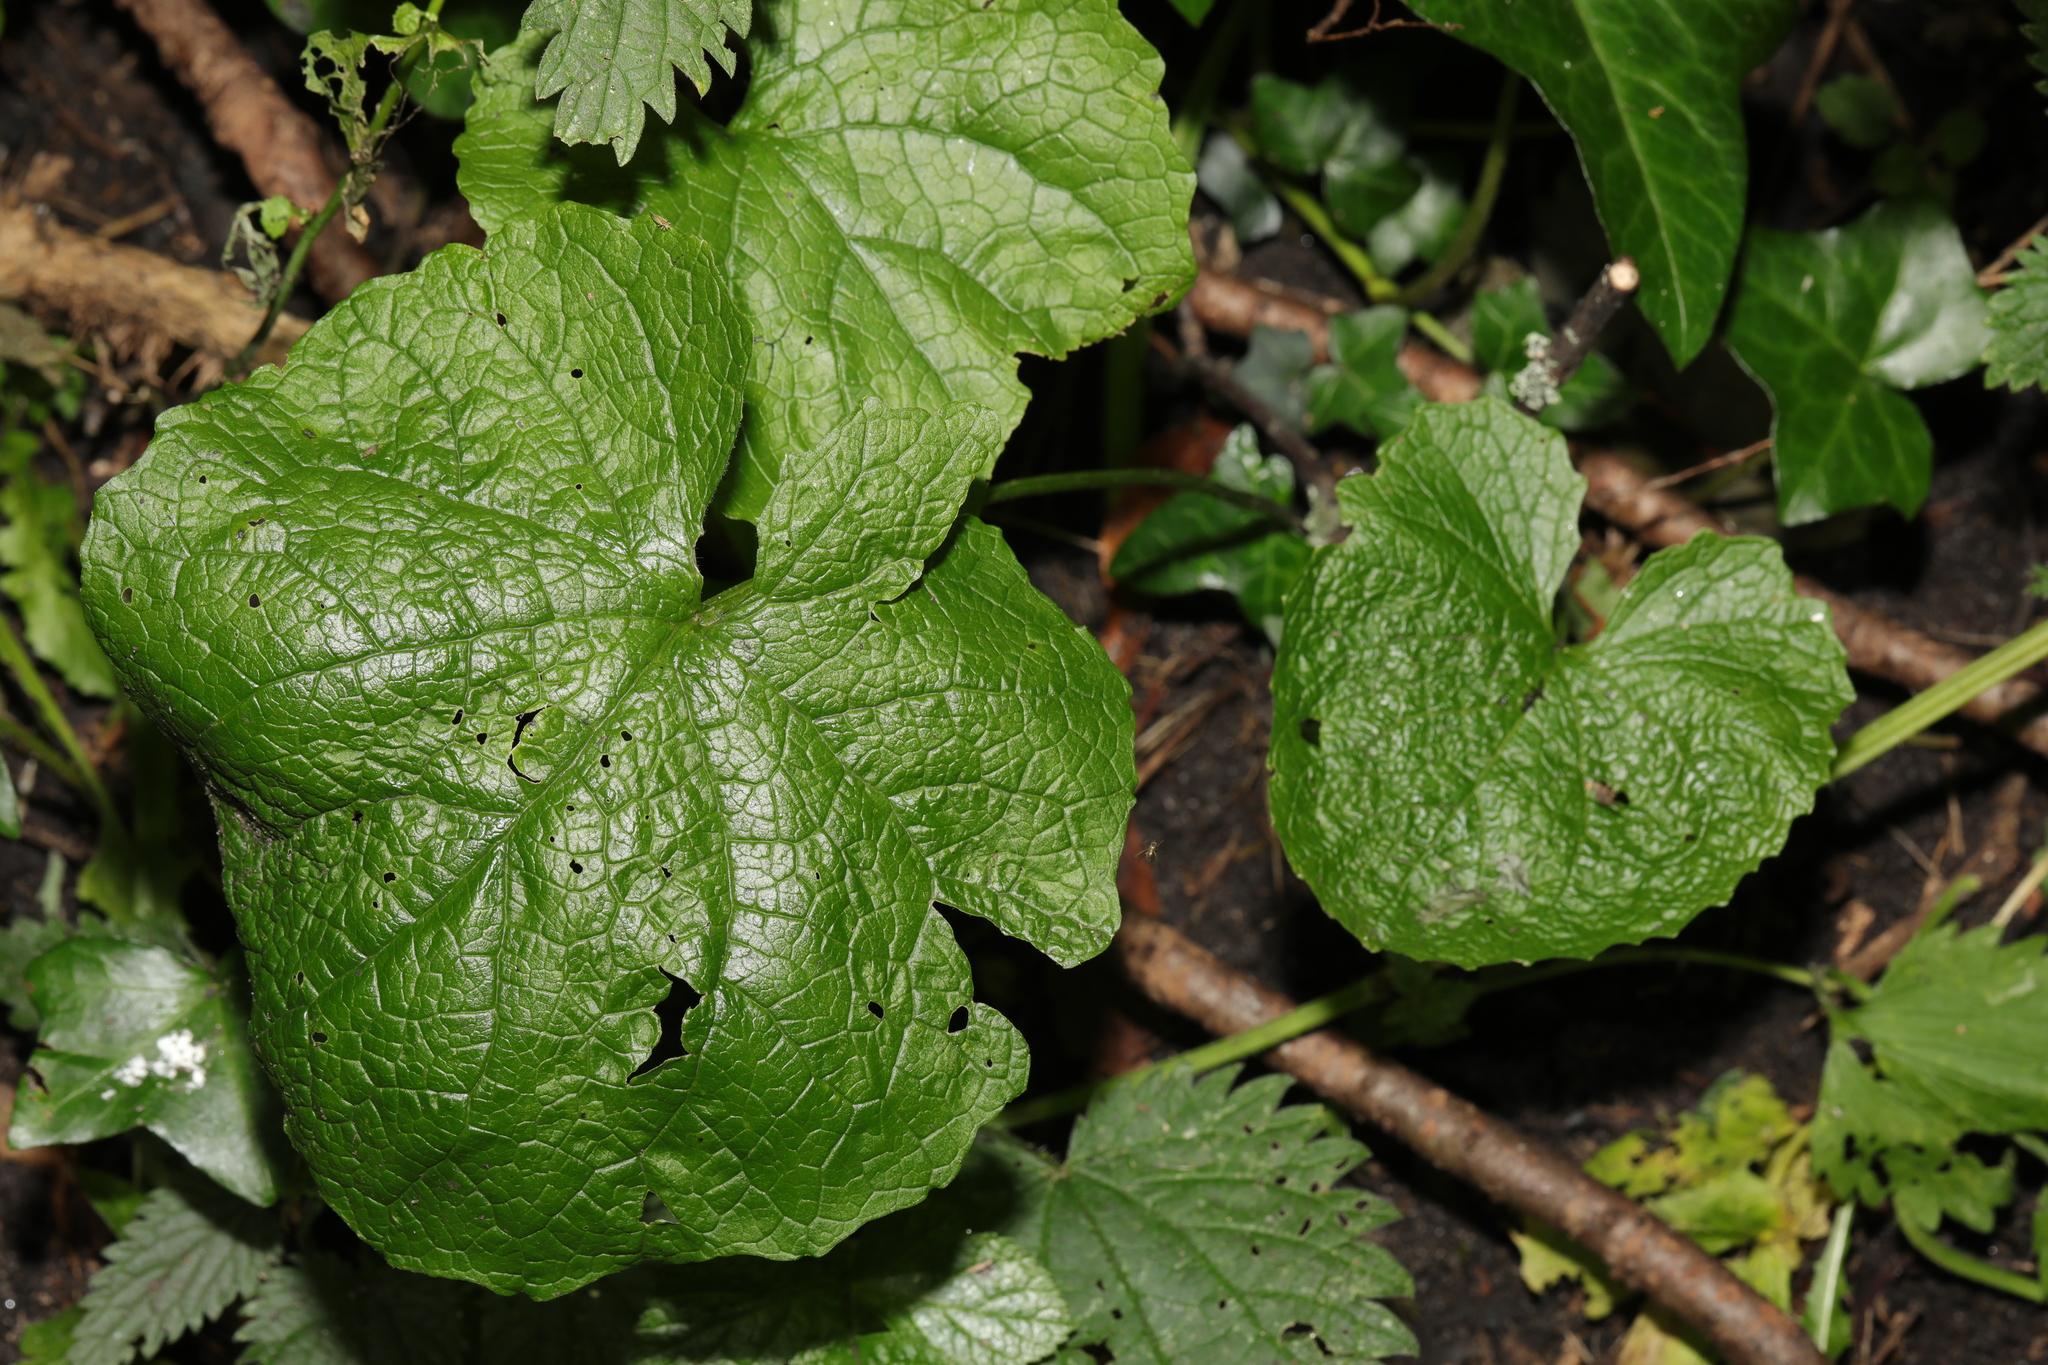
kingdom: Plantae
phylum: Tracheophyta
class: Magnoliopsida
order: Brassicales
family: Brassicaceae
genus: Alliaria
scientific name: Alliaria petiolata
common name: Garlic mustard
